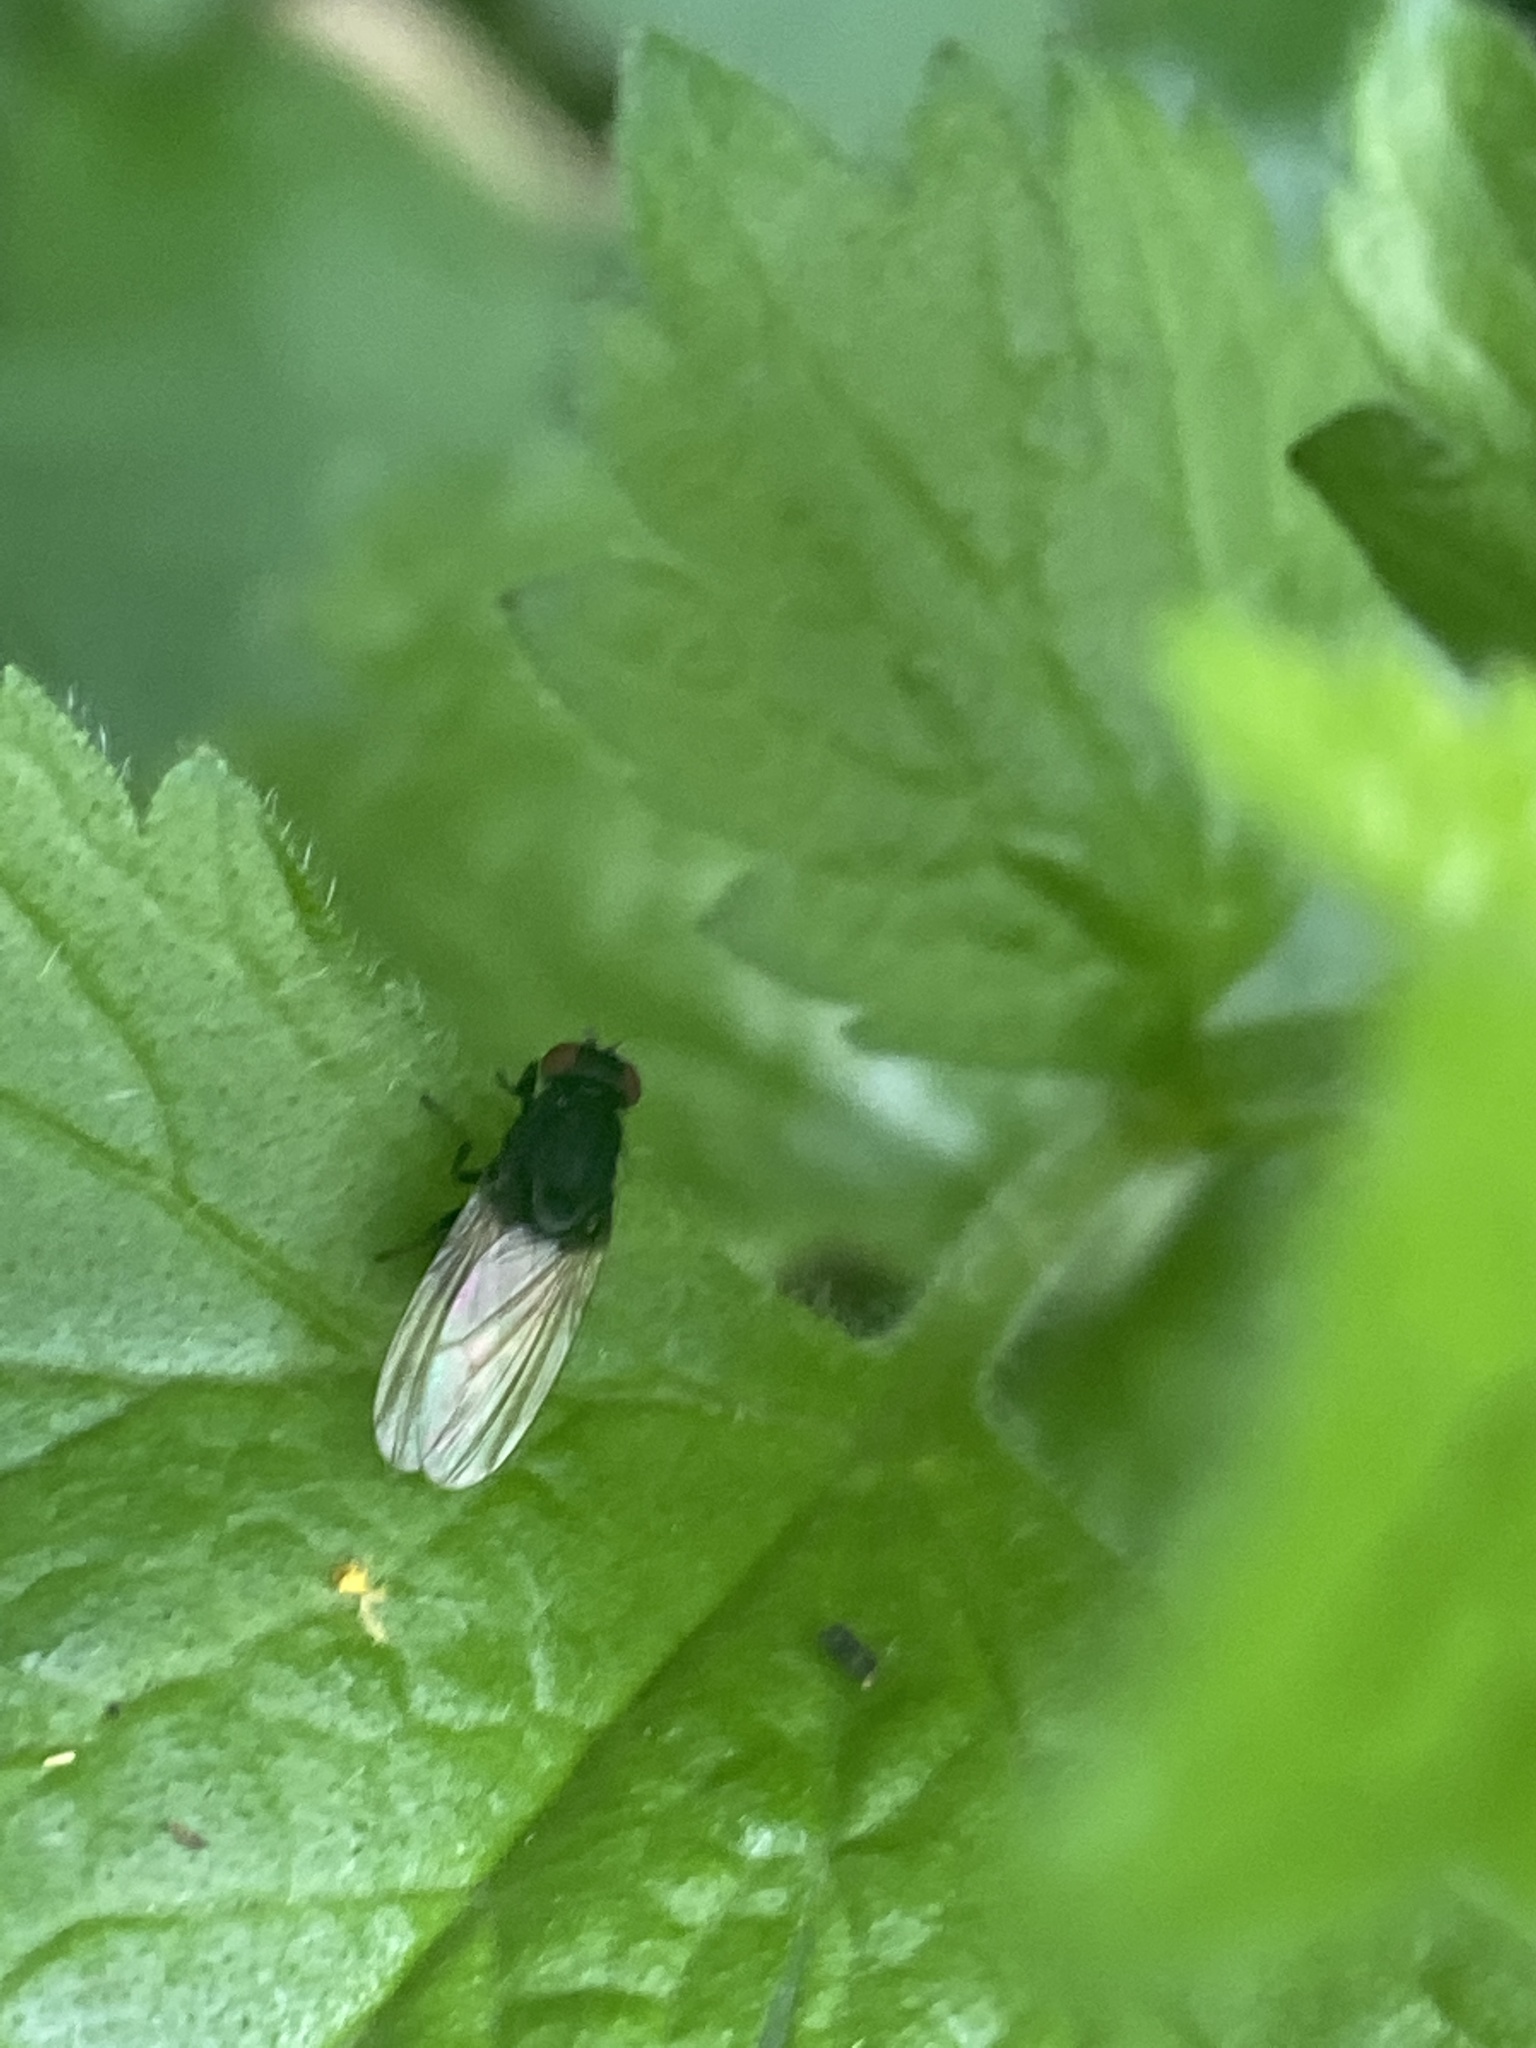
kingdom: Animalia
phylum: Arthropoda
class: Insecta
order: Diptera
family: Lauxaniidae
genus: Minettia
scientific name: Minettia longipennis
